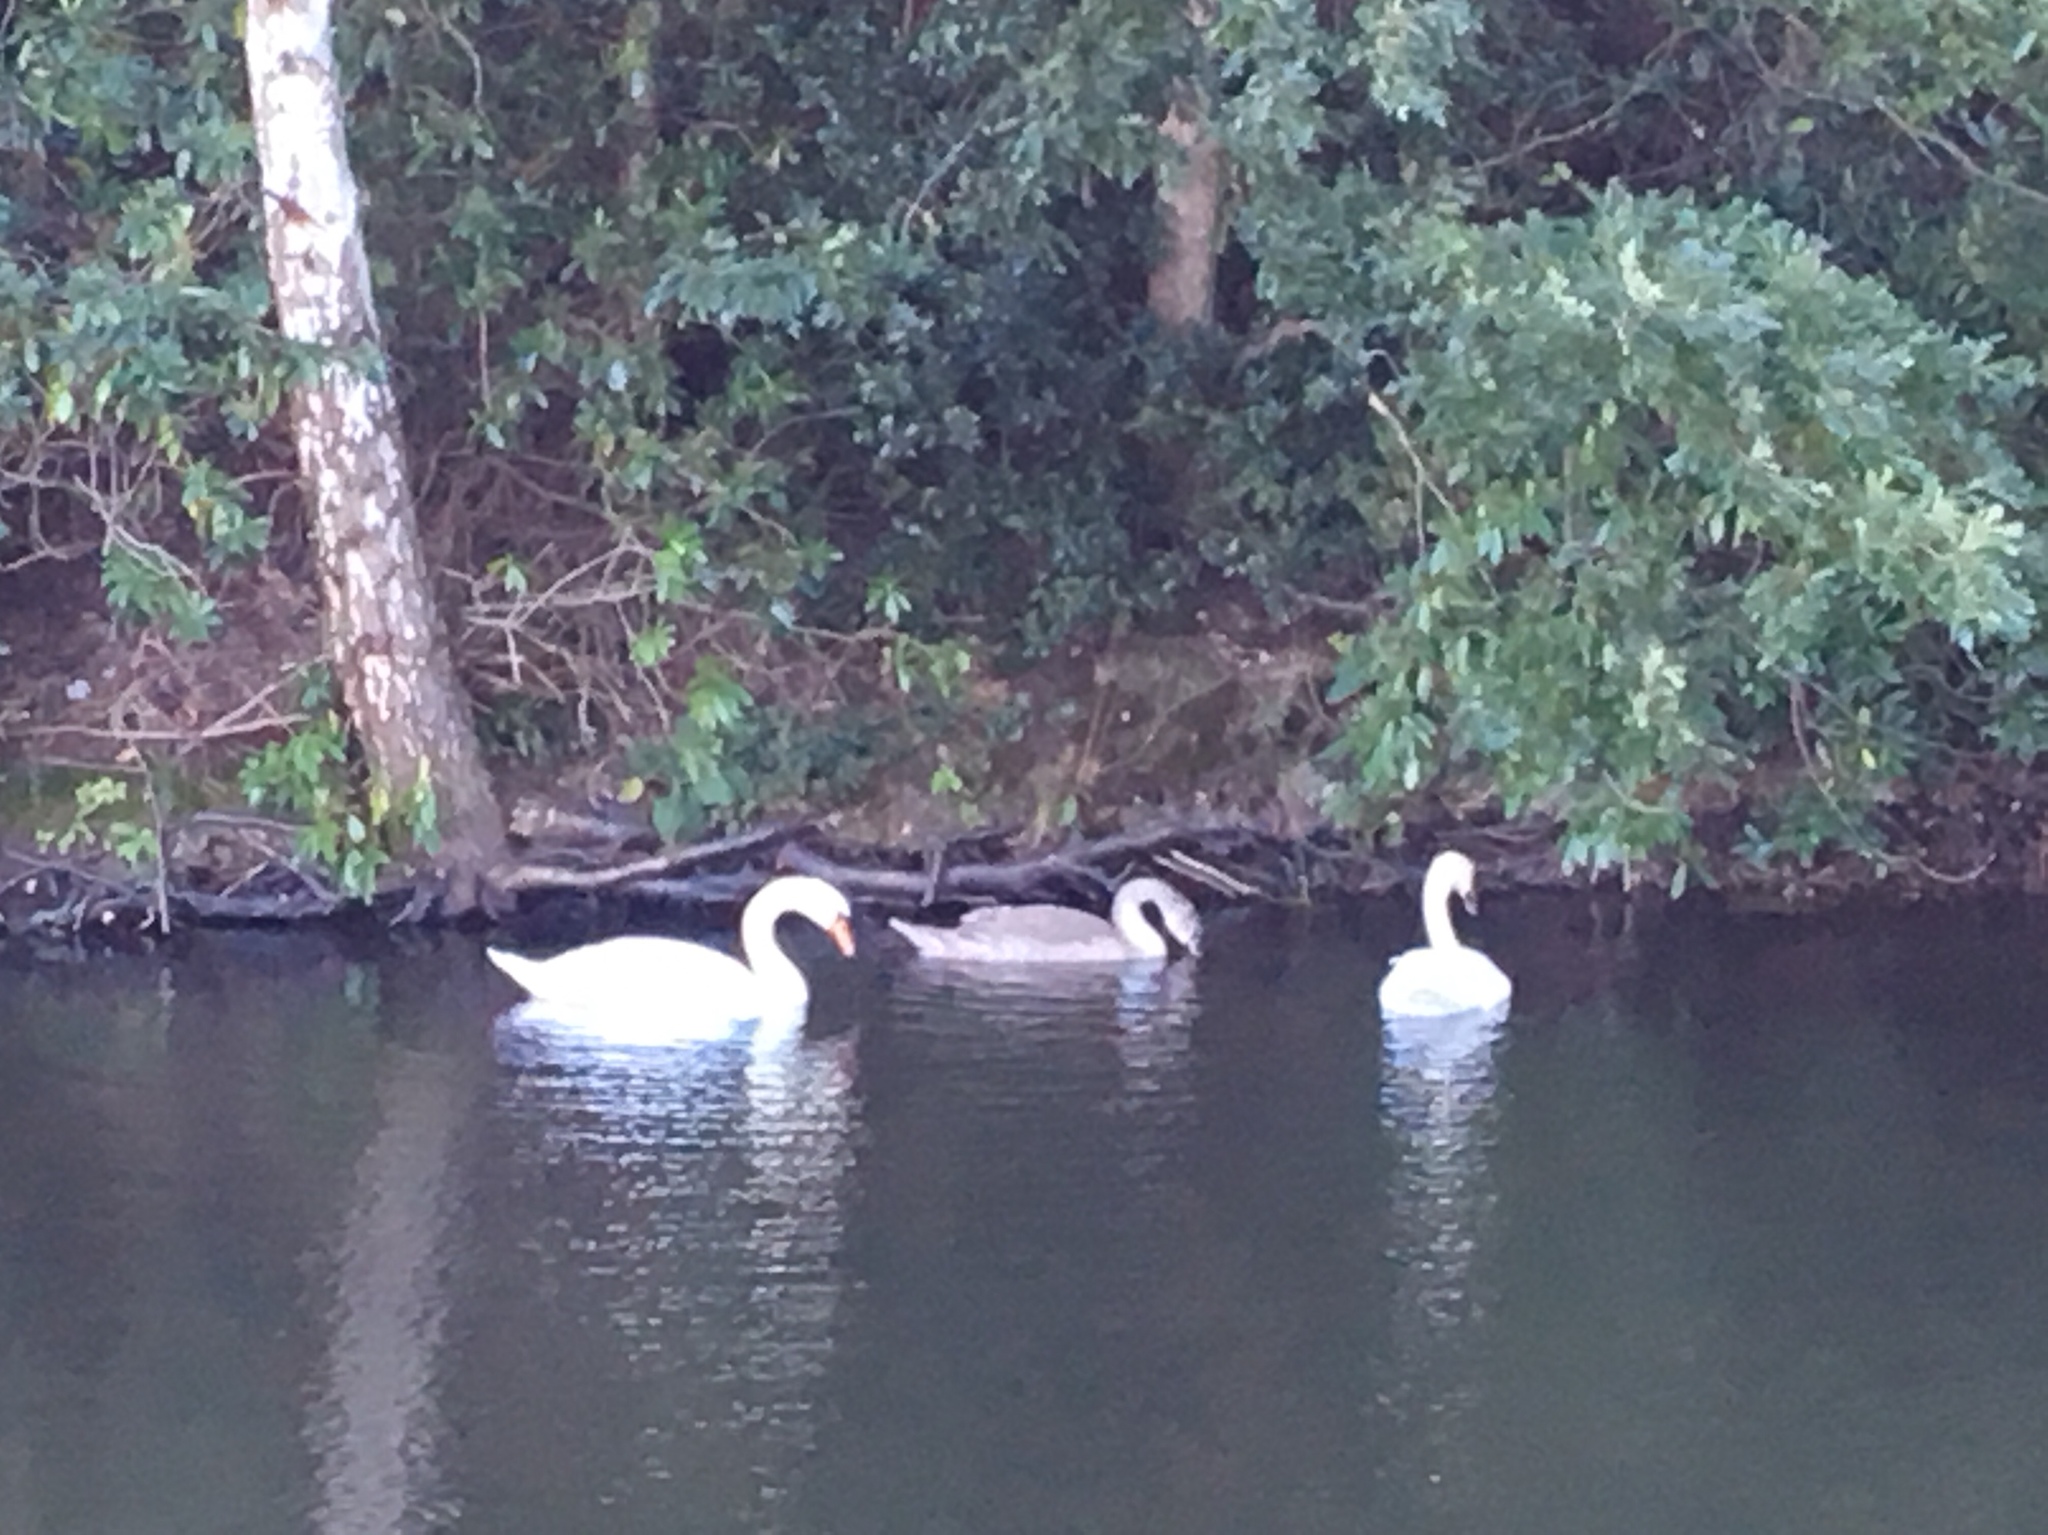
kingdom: Animalia
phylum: Chordata
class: Aves
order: Anseriformes
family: Anatidae
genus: Cygnus
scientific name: Cygnus olor
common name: Mute swan
